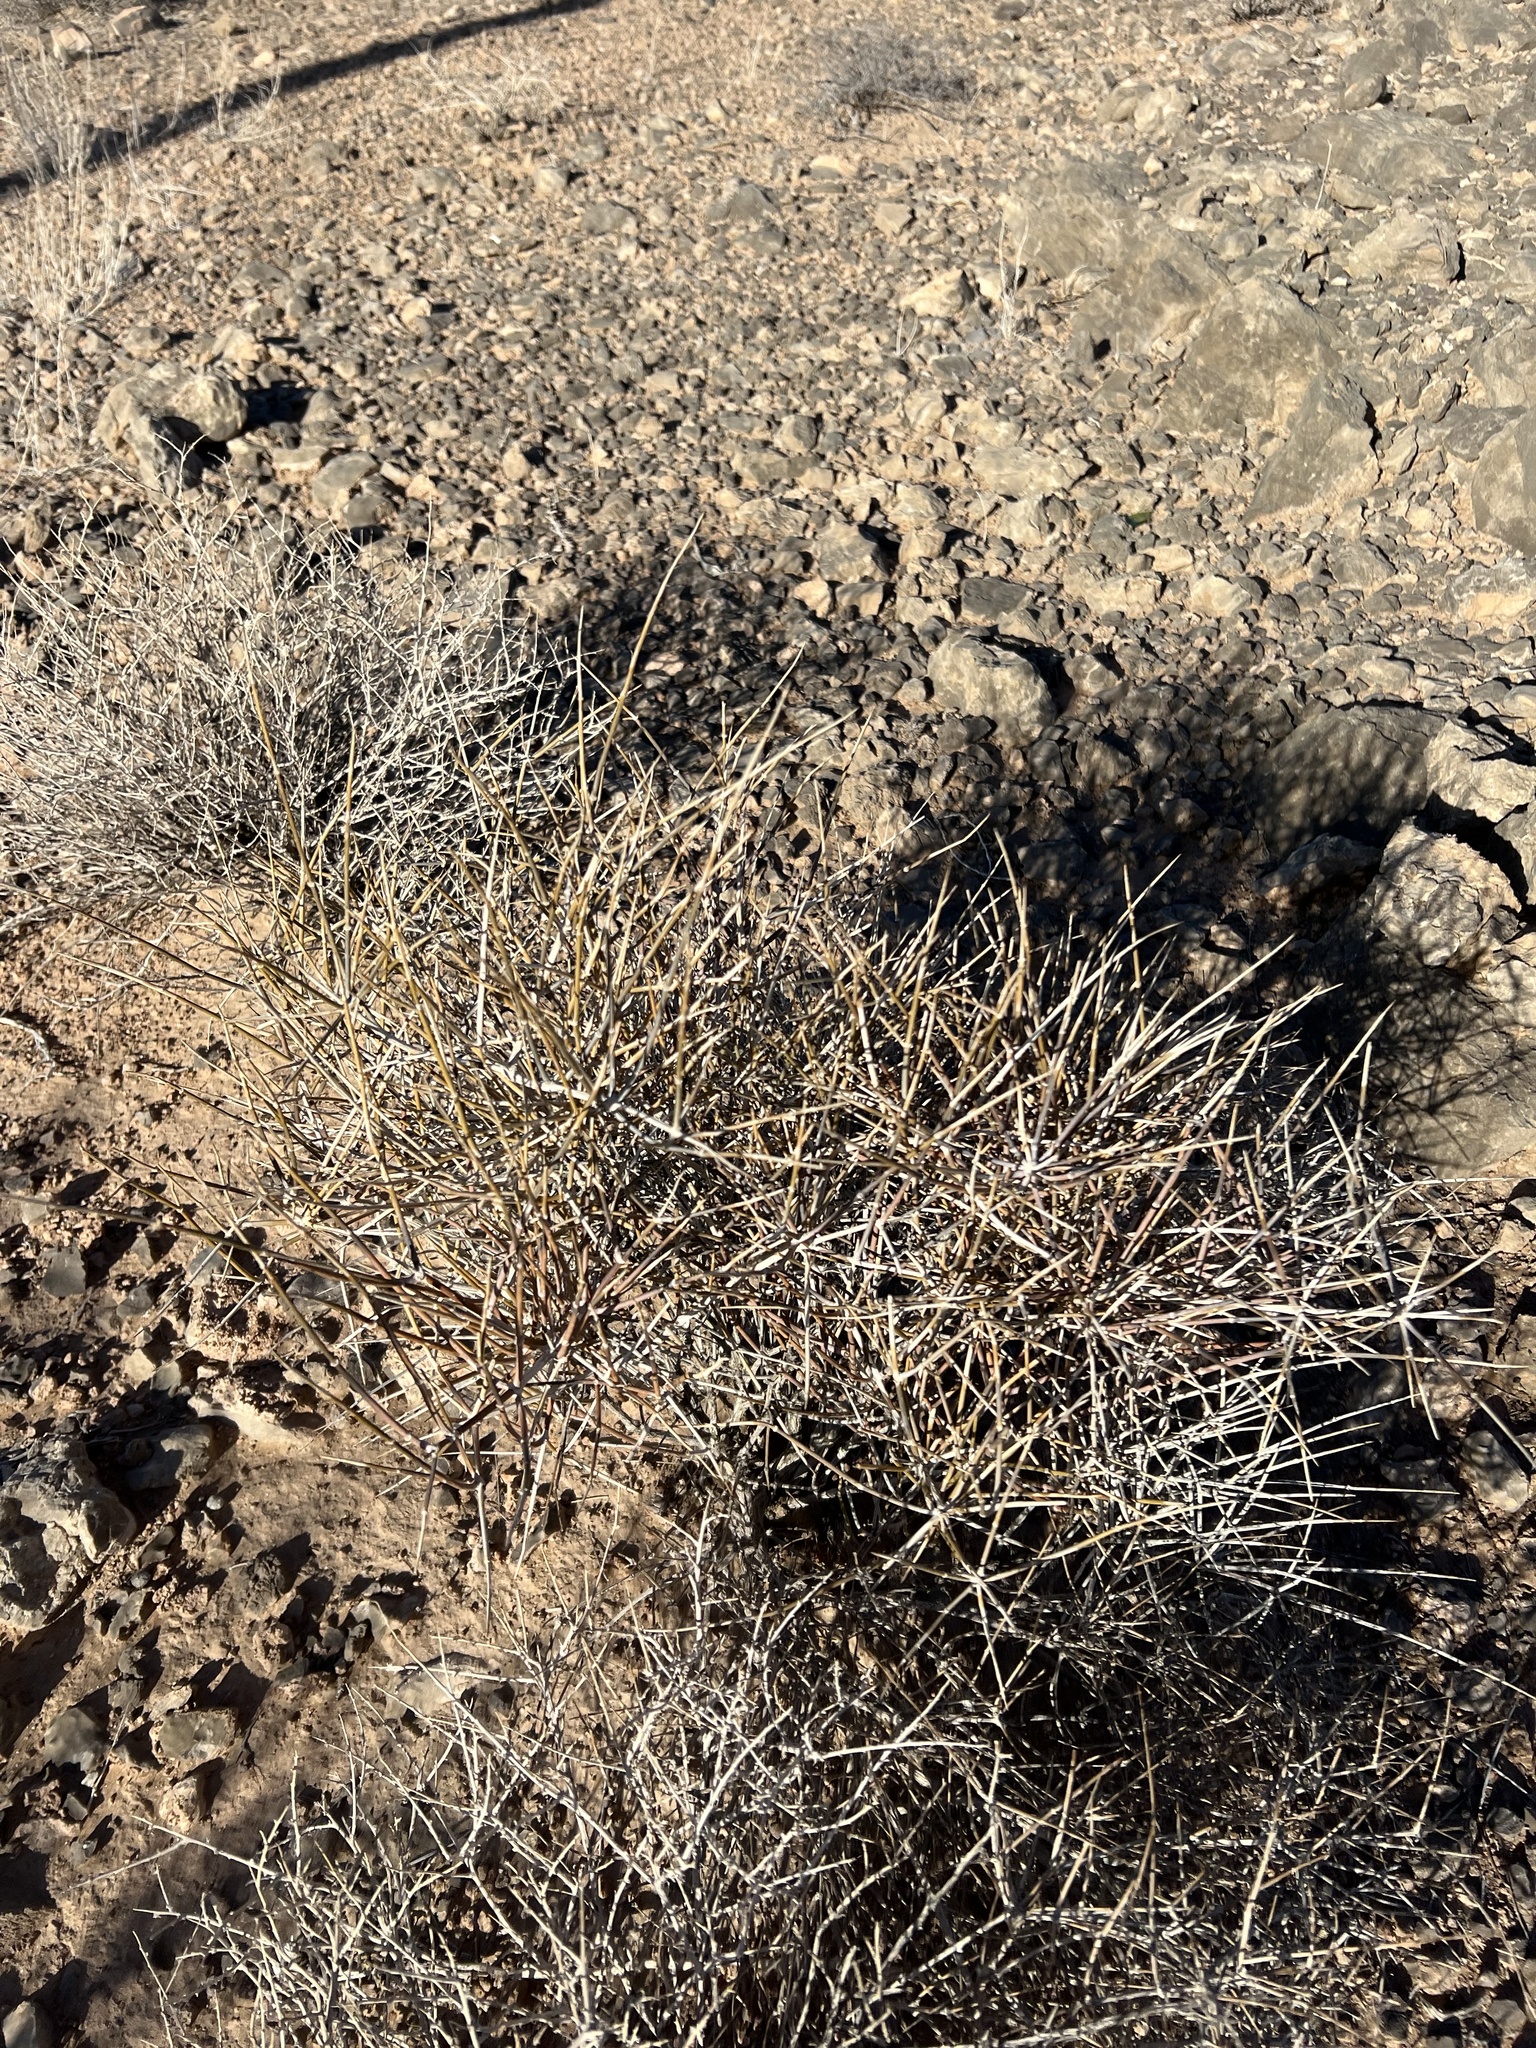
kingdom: Plantae
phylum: Tracheophyta
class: Gnetopsida
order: Ephedrales
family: Ephedraceae
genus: Ephedra
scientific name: Ephedra nevadensis
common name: Gray ephedra
